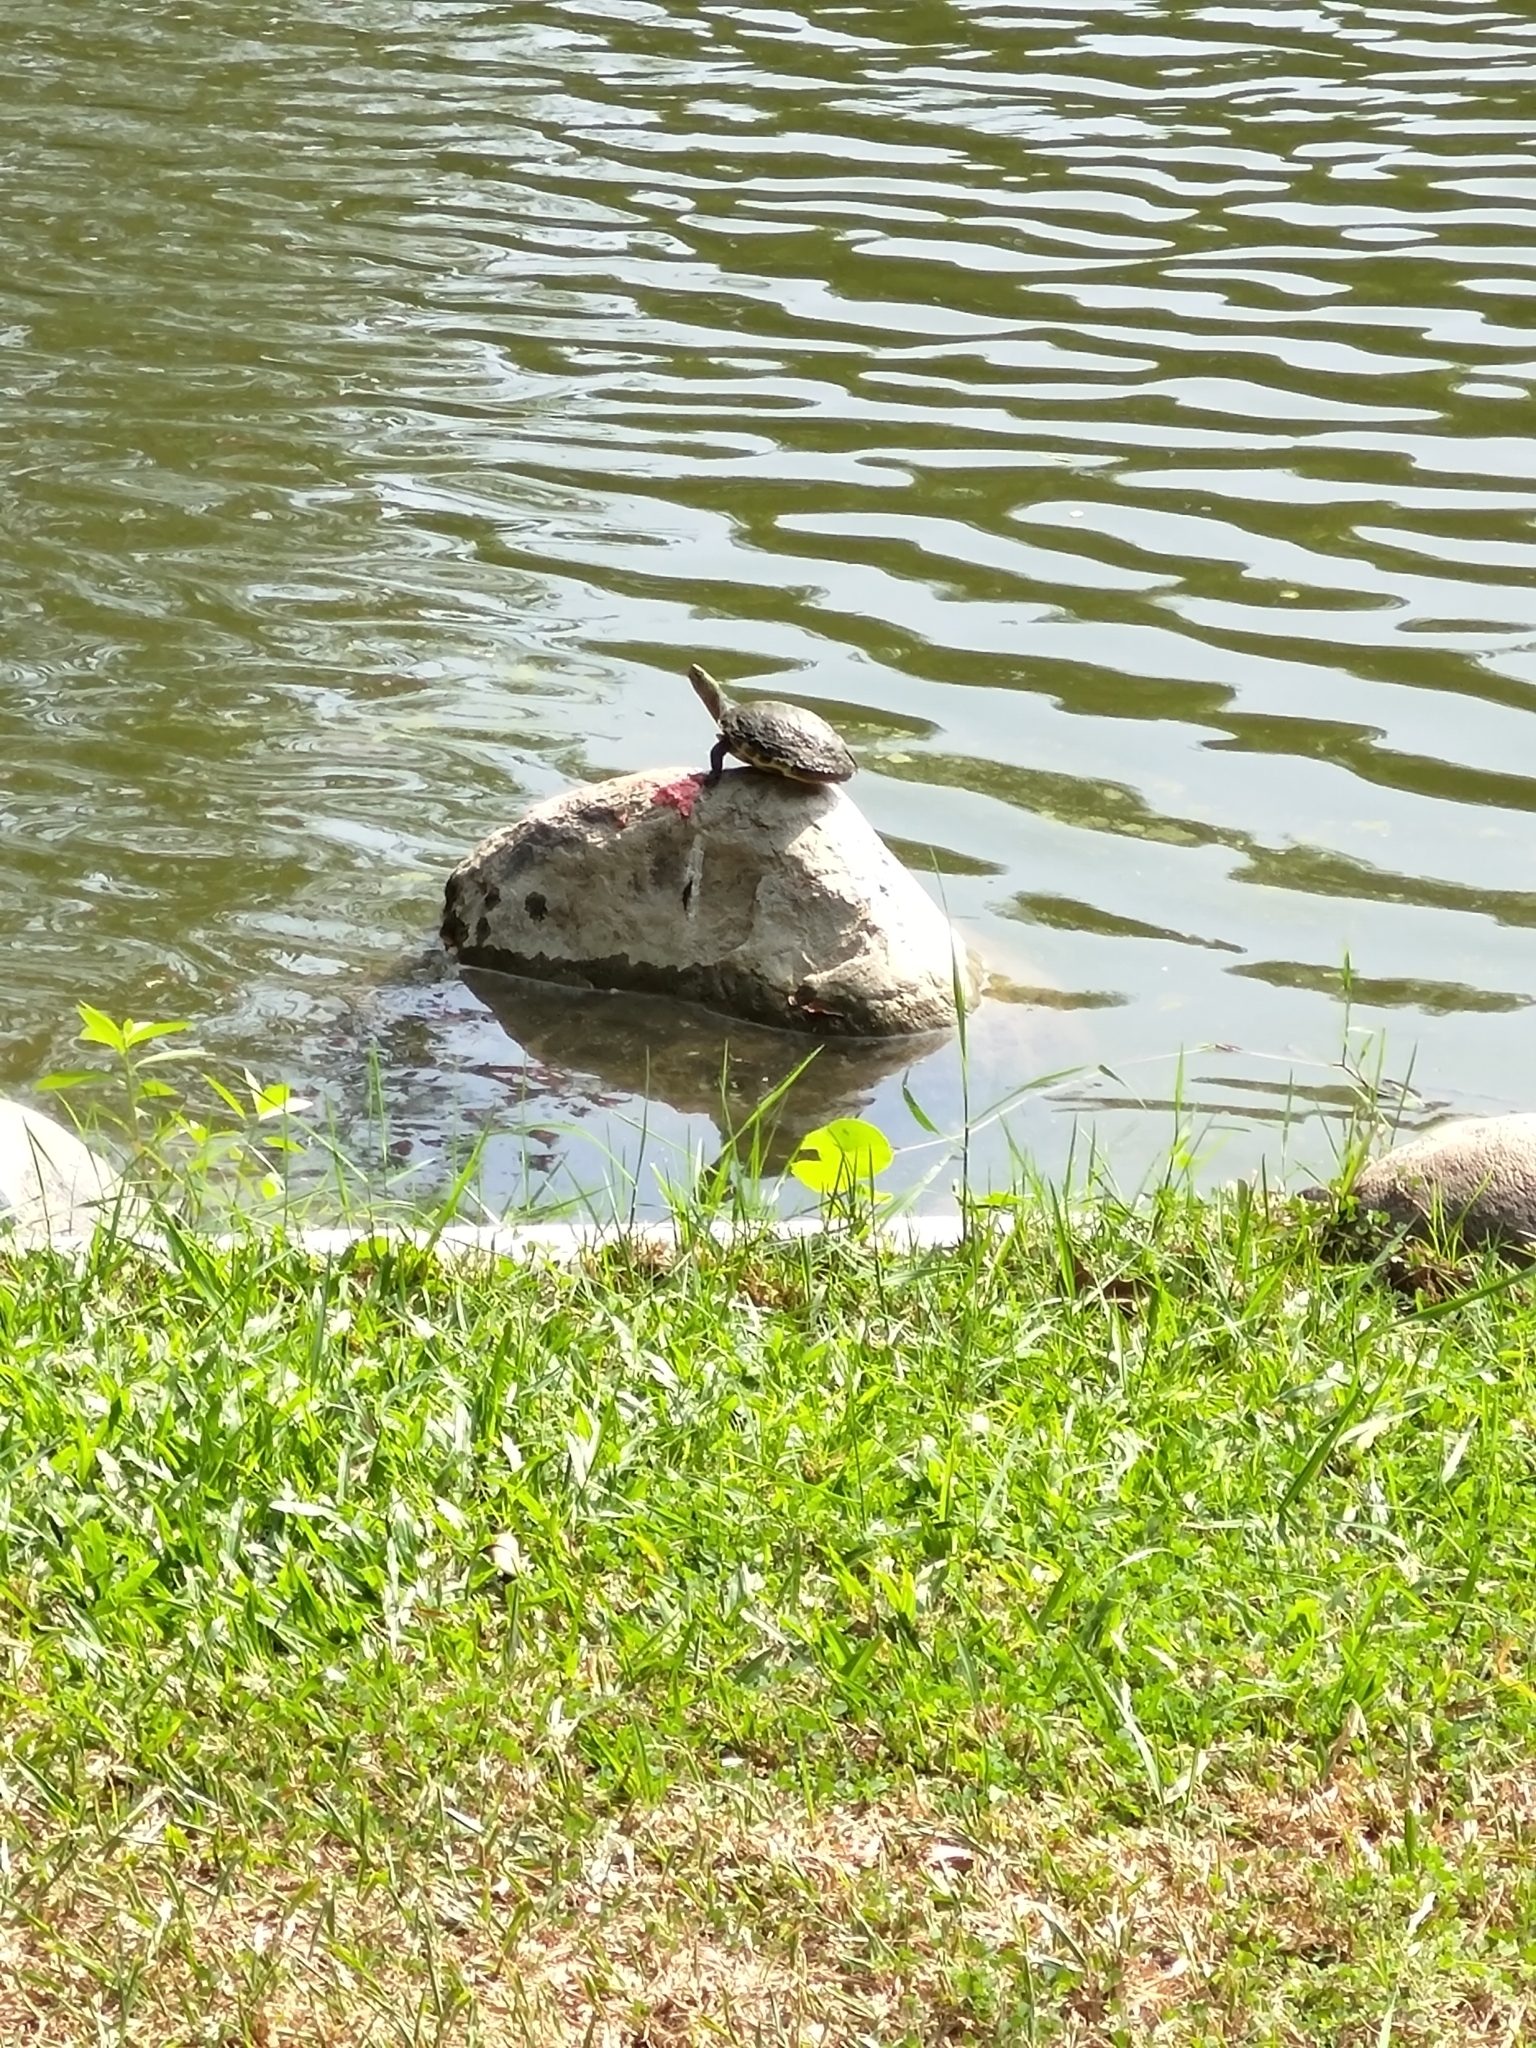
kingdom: Animalia
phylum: Chordata
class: Testudines
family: Geoemydidae
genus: Mauremys
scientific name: Mauremys sinensis
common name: Chinese stripe-necked turtle
